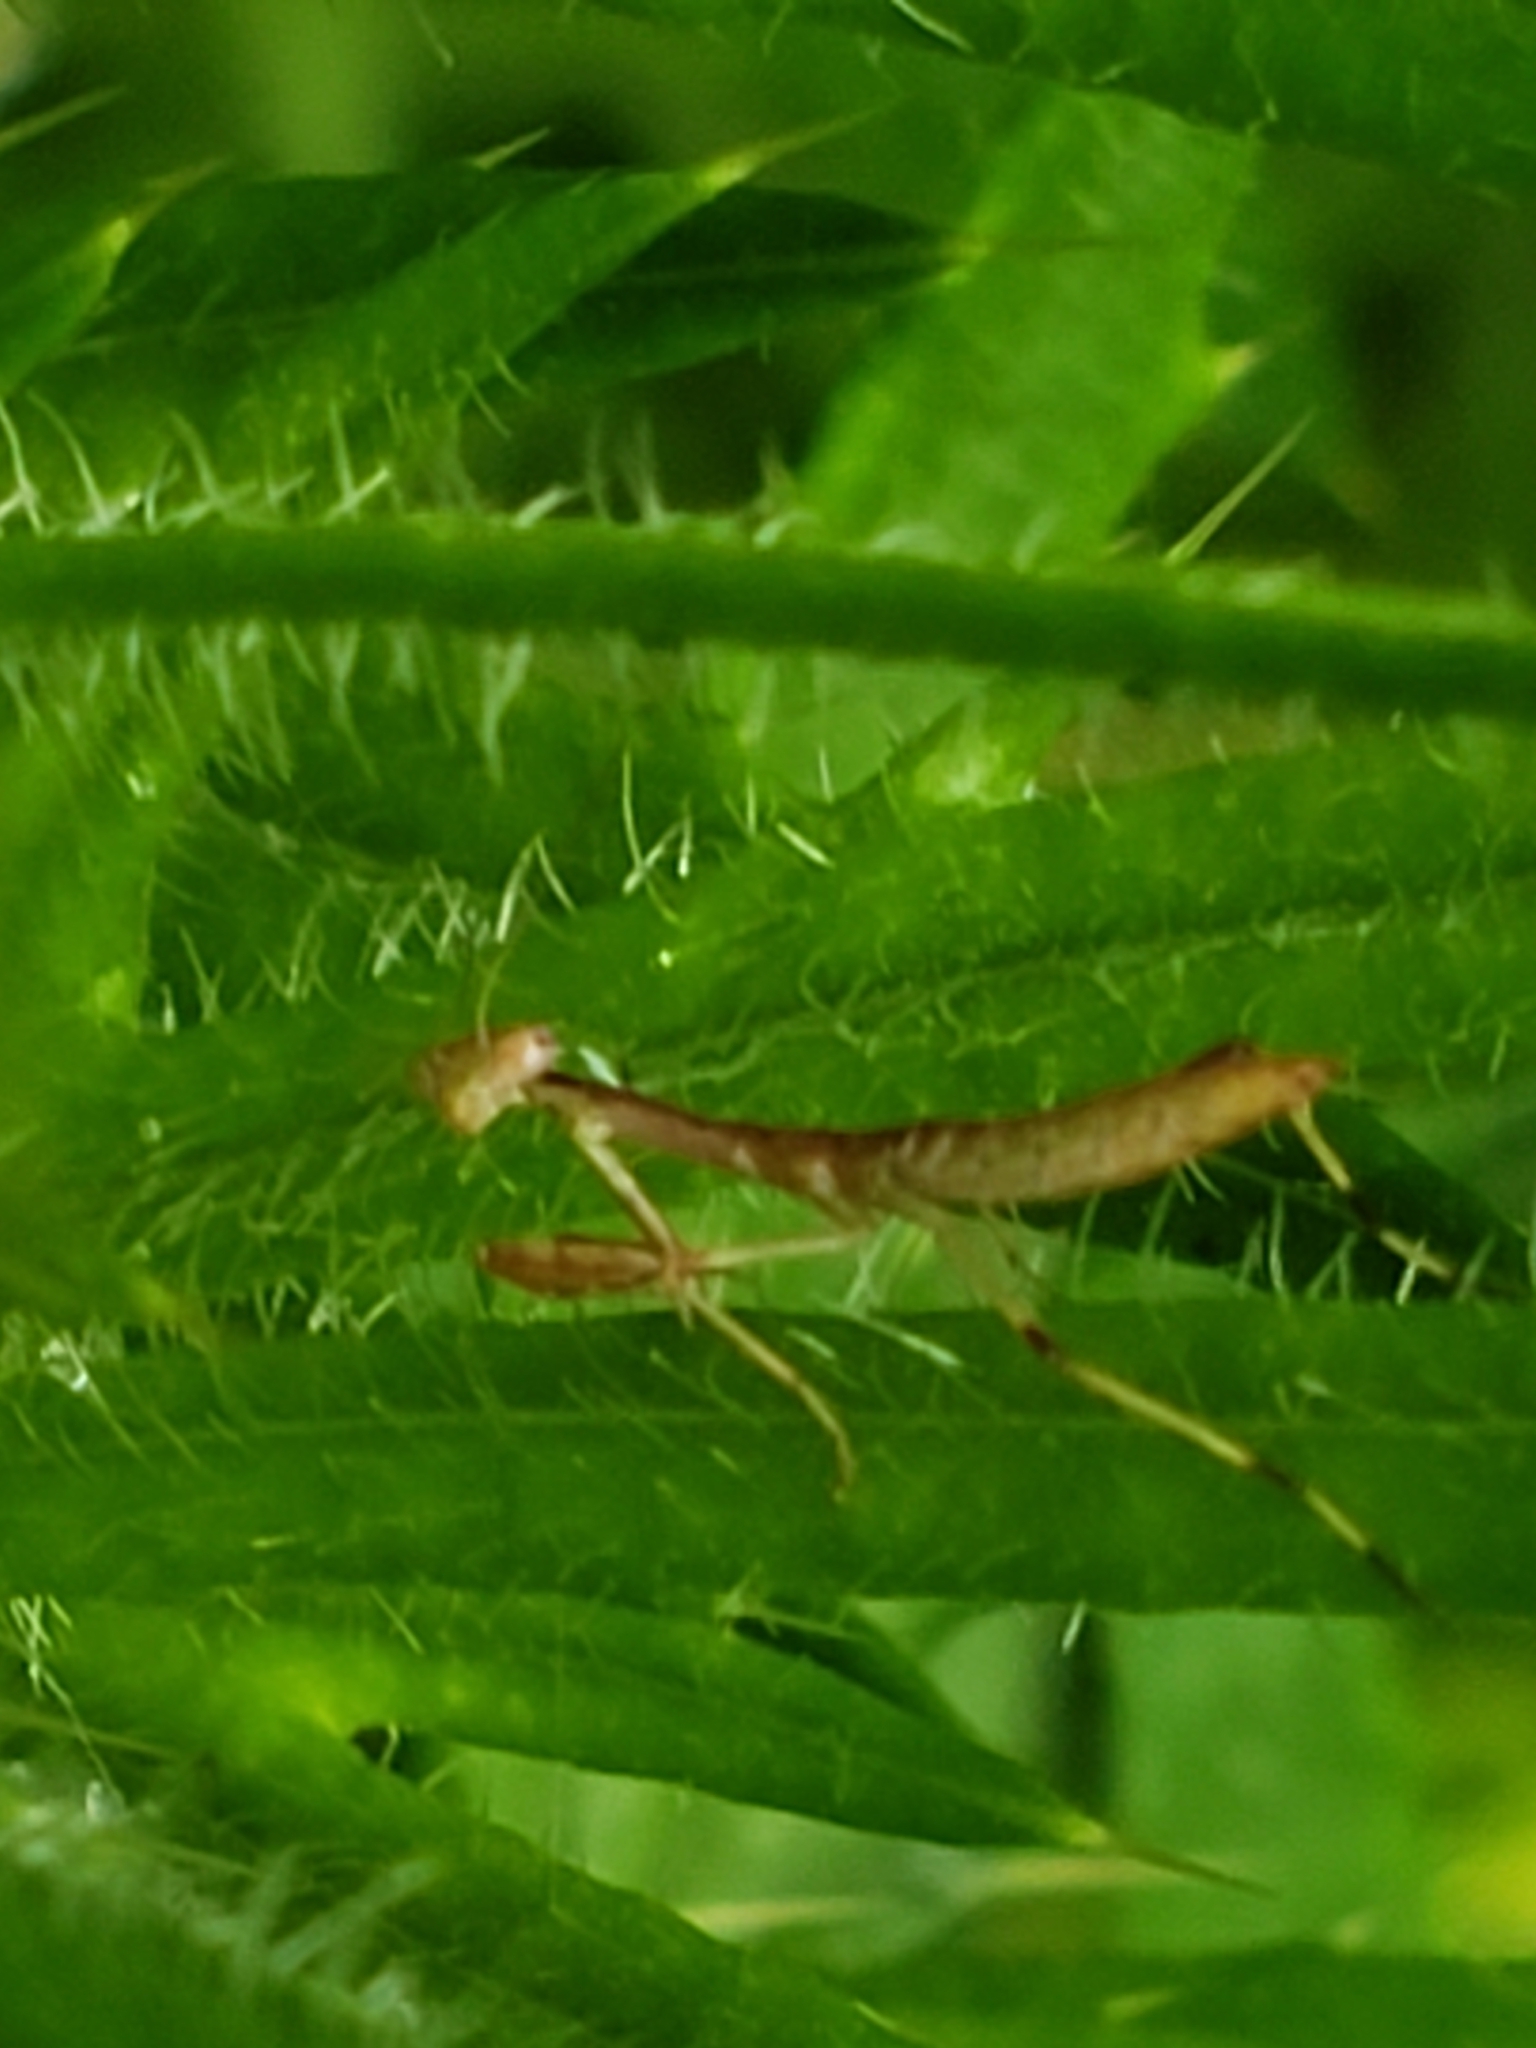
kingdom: Animalia
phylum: Arthropoda
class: Insecta
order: Mantodea
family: Mantidae
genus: Stagmomantis
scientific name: Stagmomantis carolina
